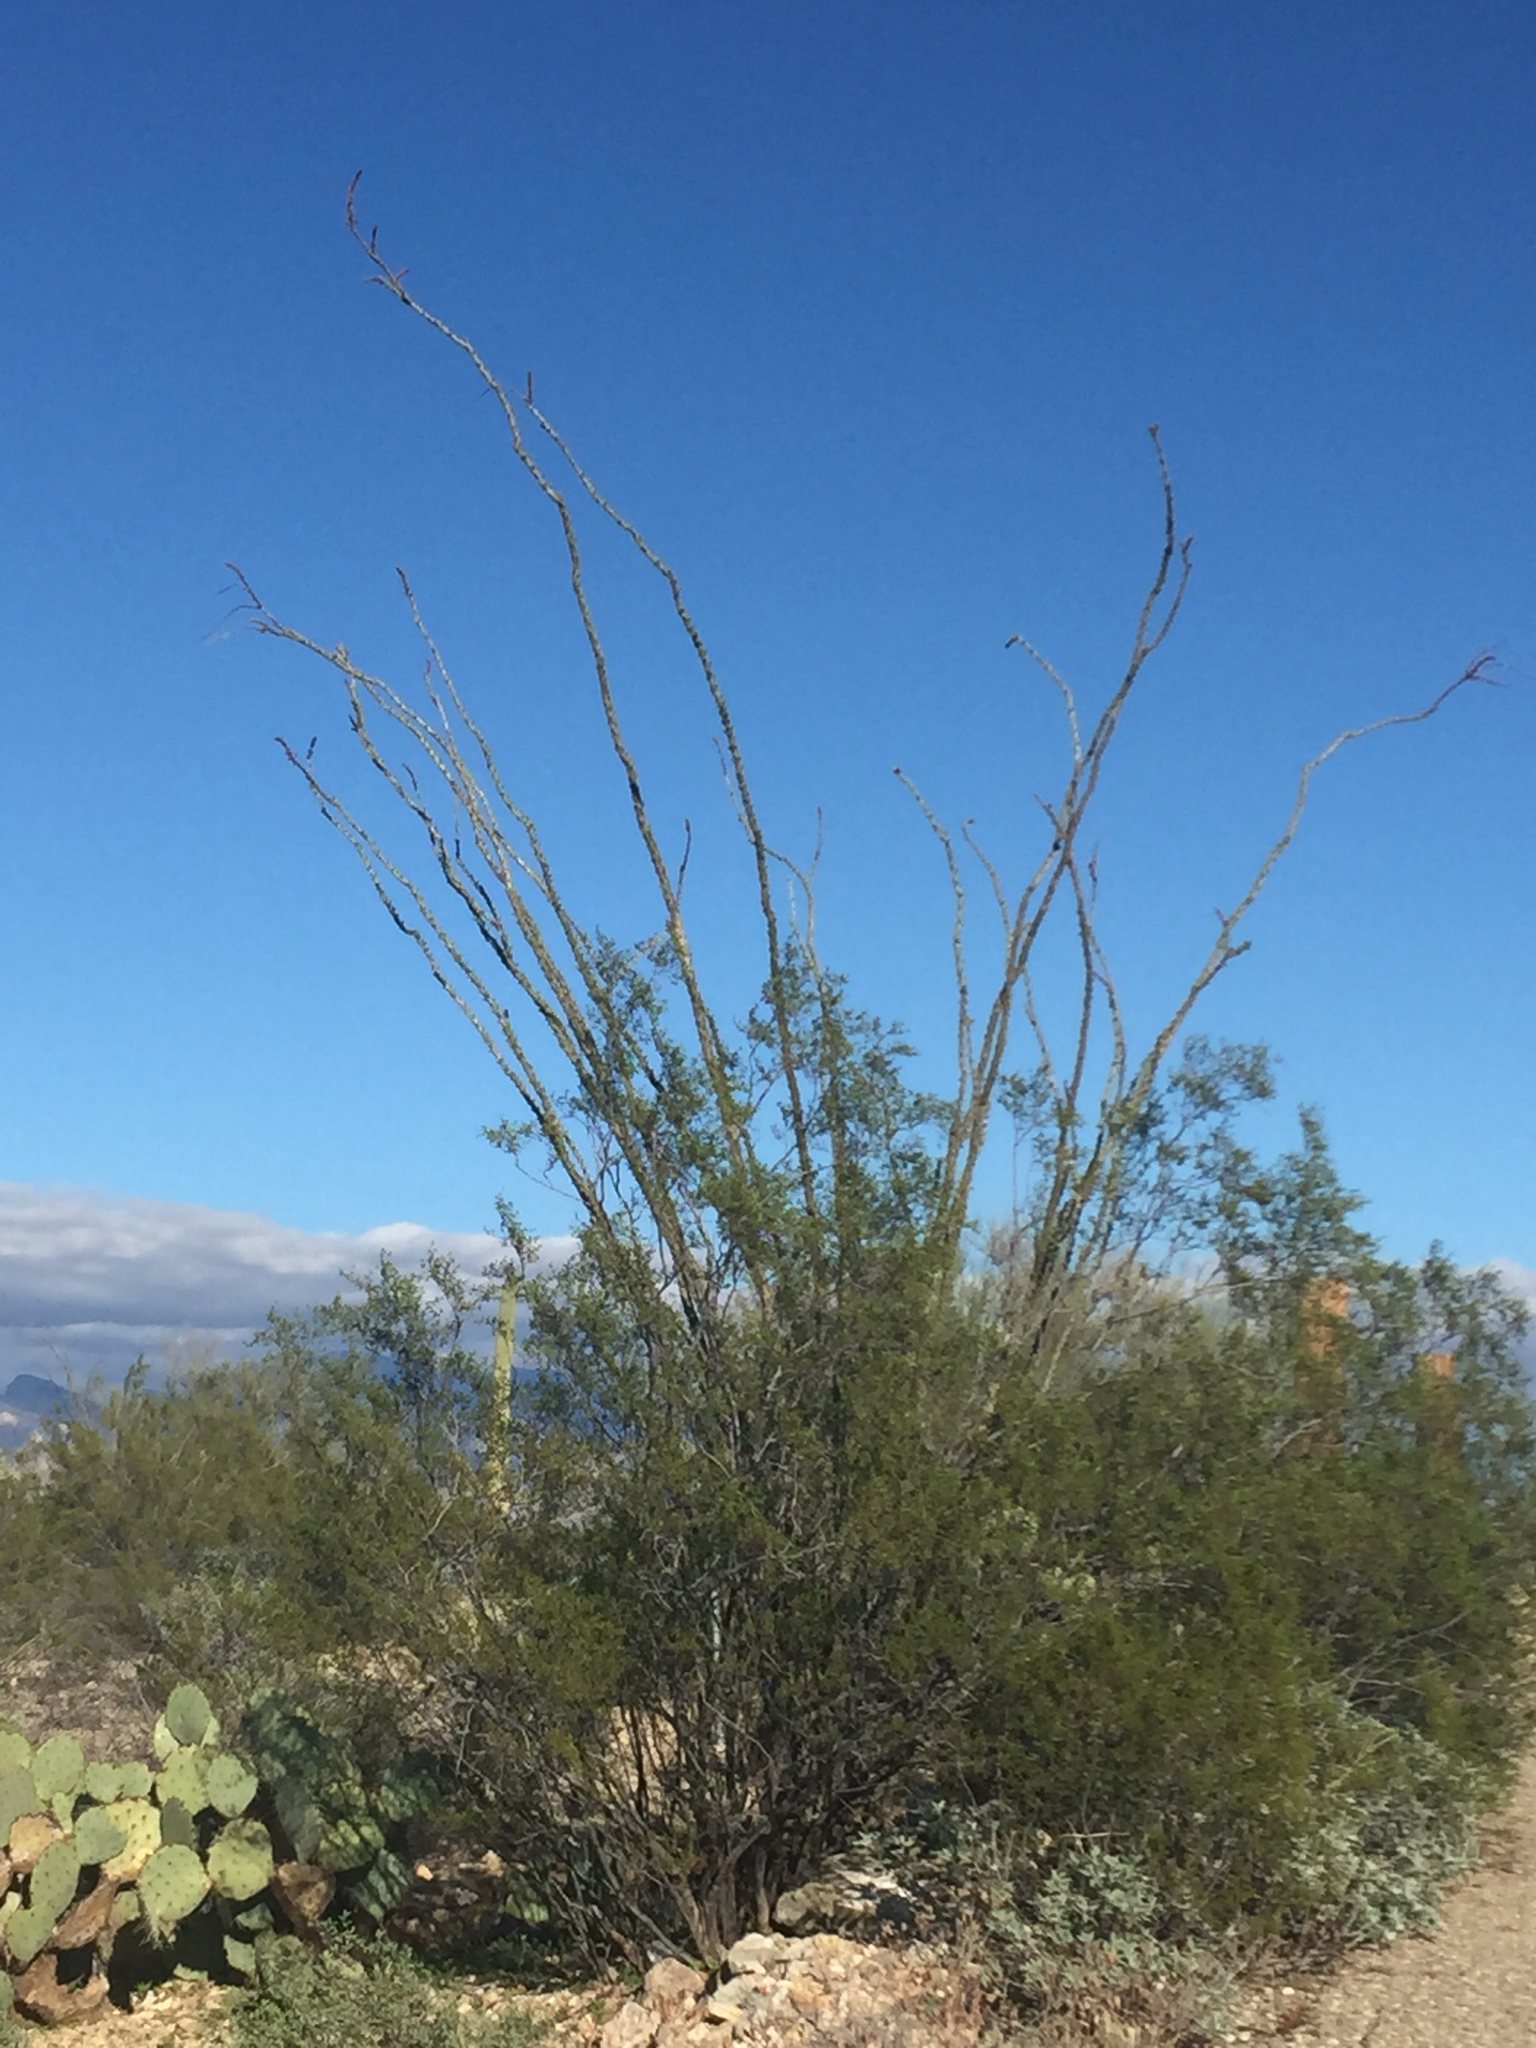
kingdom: Plantae
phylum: Tracheophyta
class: Magnoliopsida
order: Ericales
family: Fouquieriaceae
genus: Fouquieria
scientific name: Fouquieria splendens
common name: Vine-cactus
